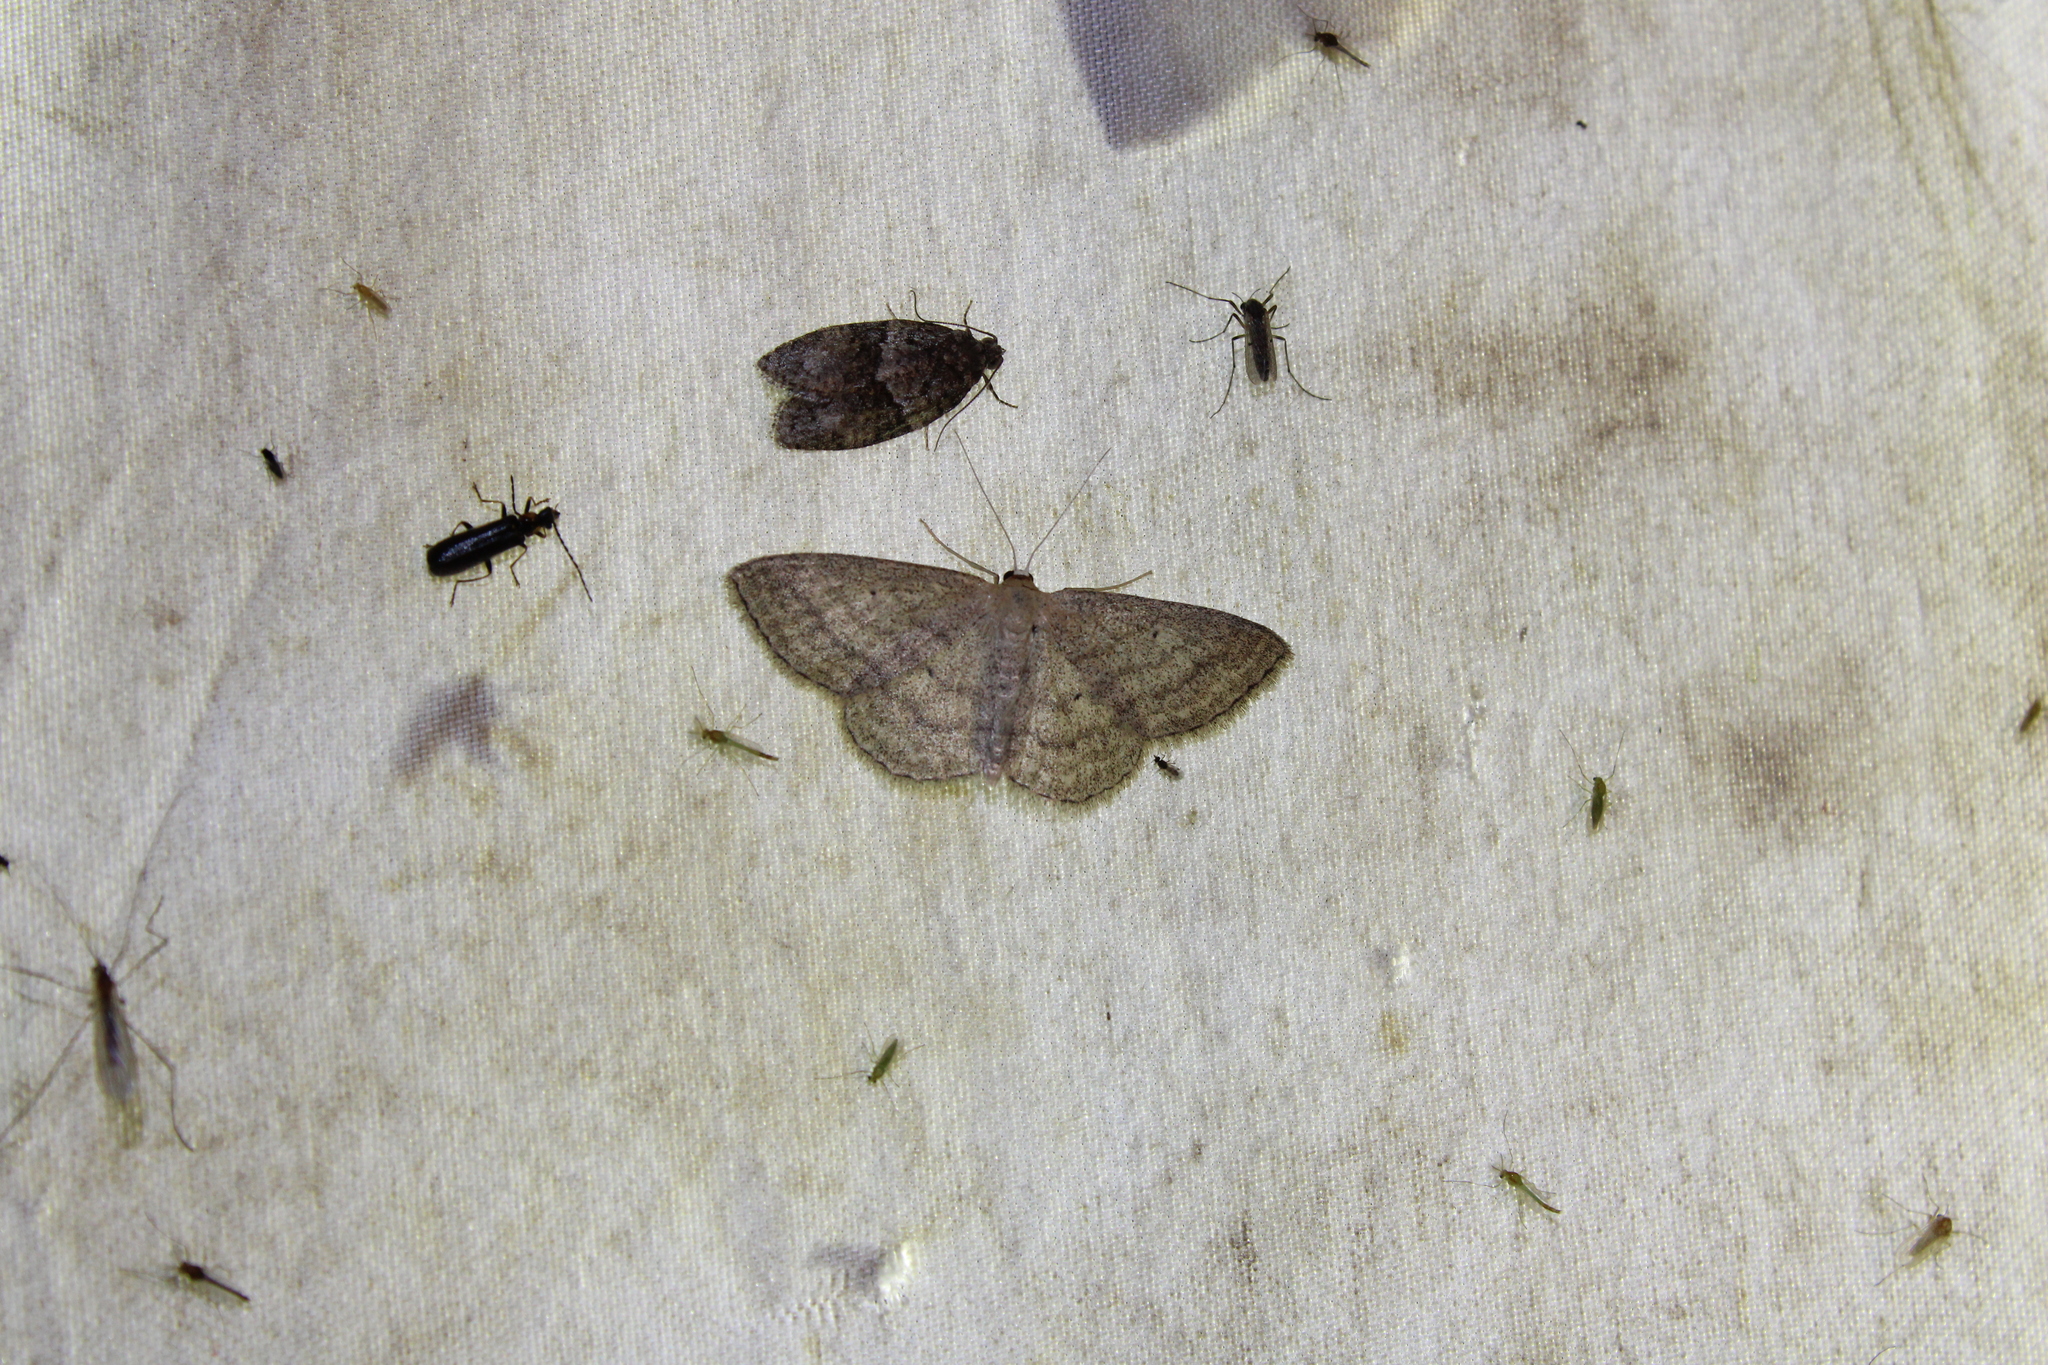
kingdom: Animalia
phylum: Arthropoda
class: Insecta
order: Lepidoptera
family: Geometridae
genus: Scopula
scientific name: Scopula inductata
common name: Soft-lined wave
